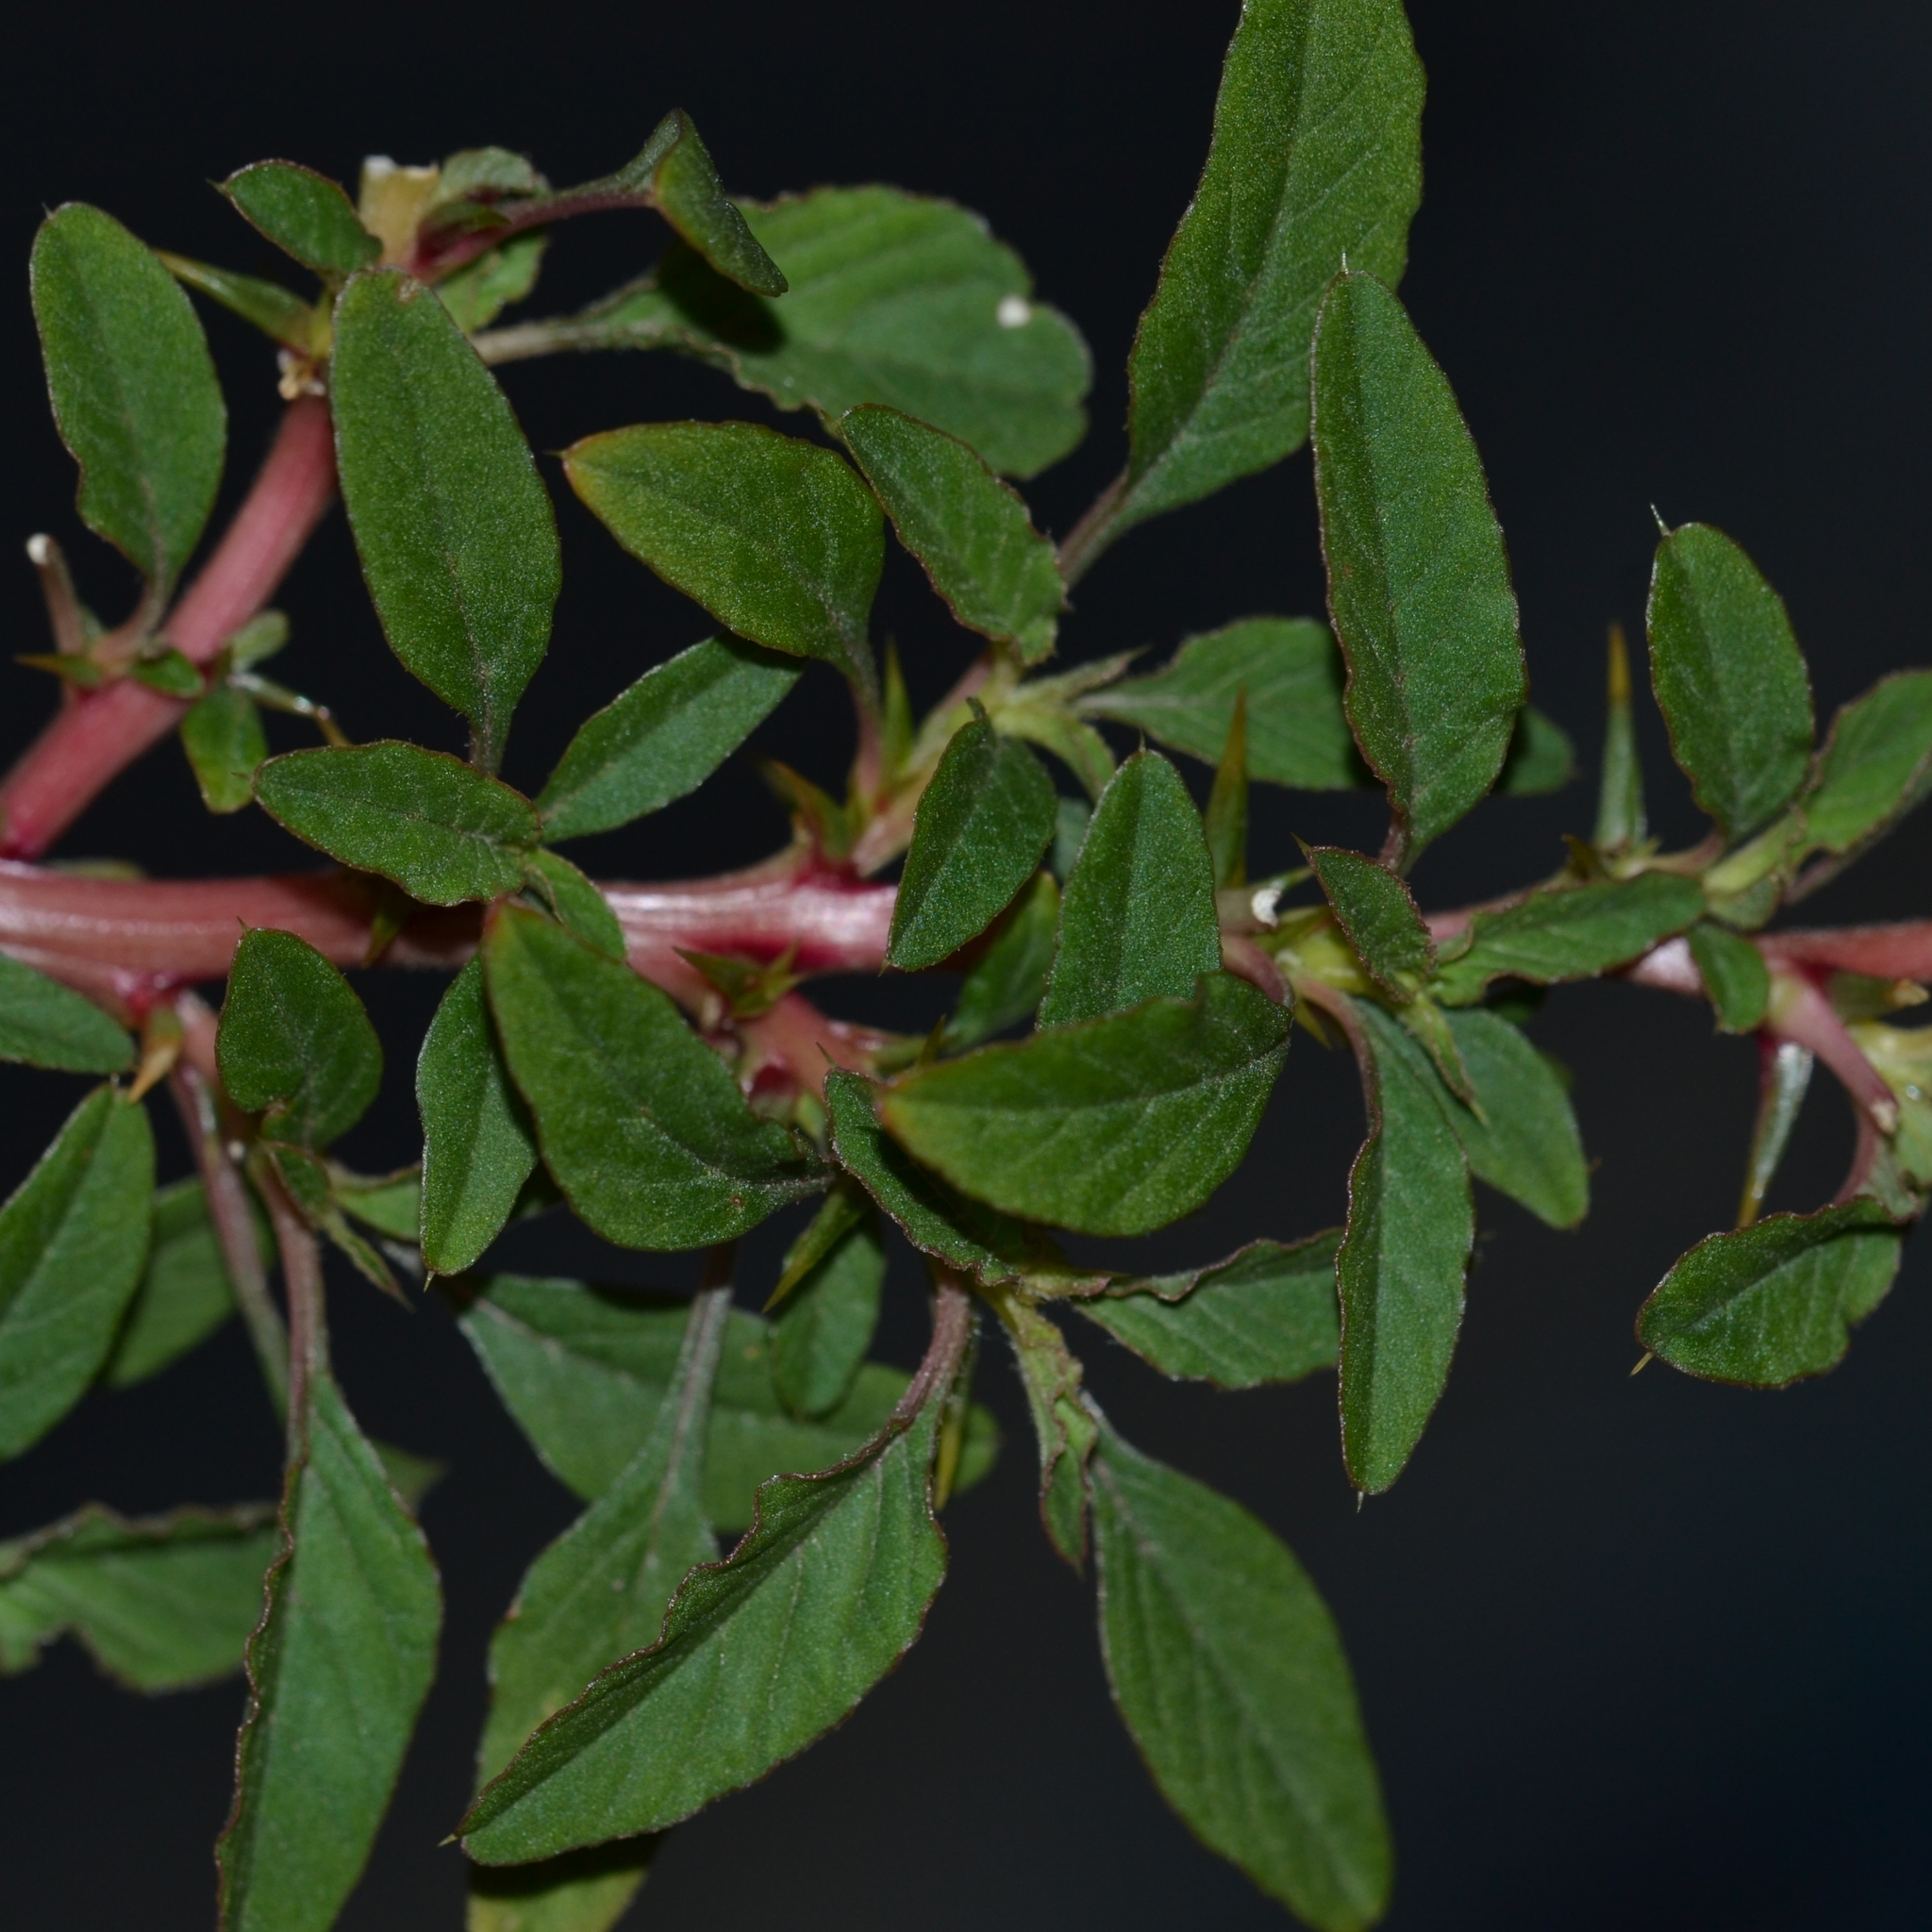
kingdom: Plantae
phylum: Tracheophyta
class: Magnoliopsida
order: Caryophyllales
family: Amaranthaceae
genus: Amaranthus
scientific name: Amaranthus spinosus
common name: Spiny amaranth
